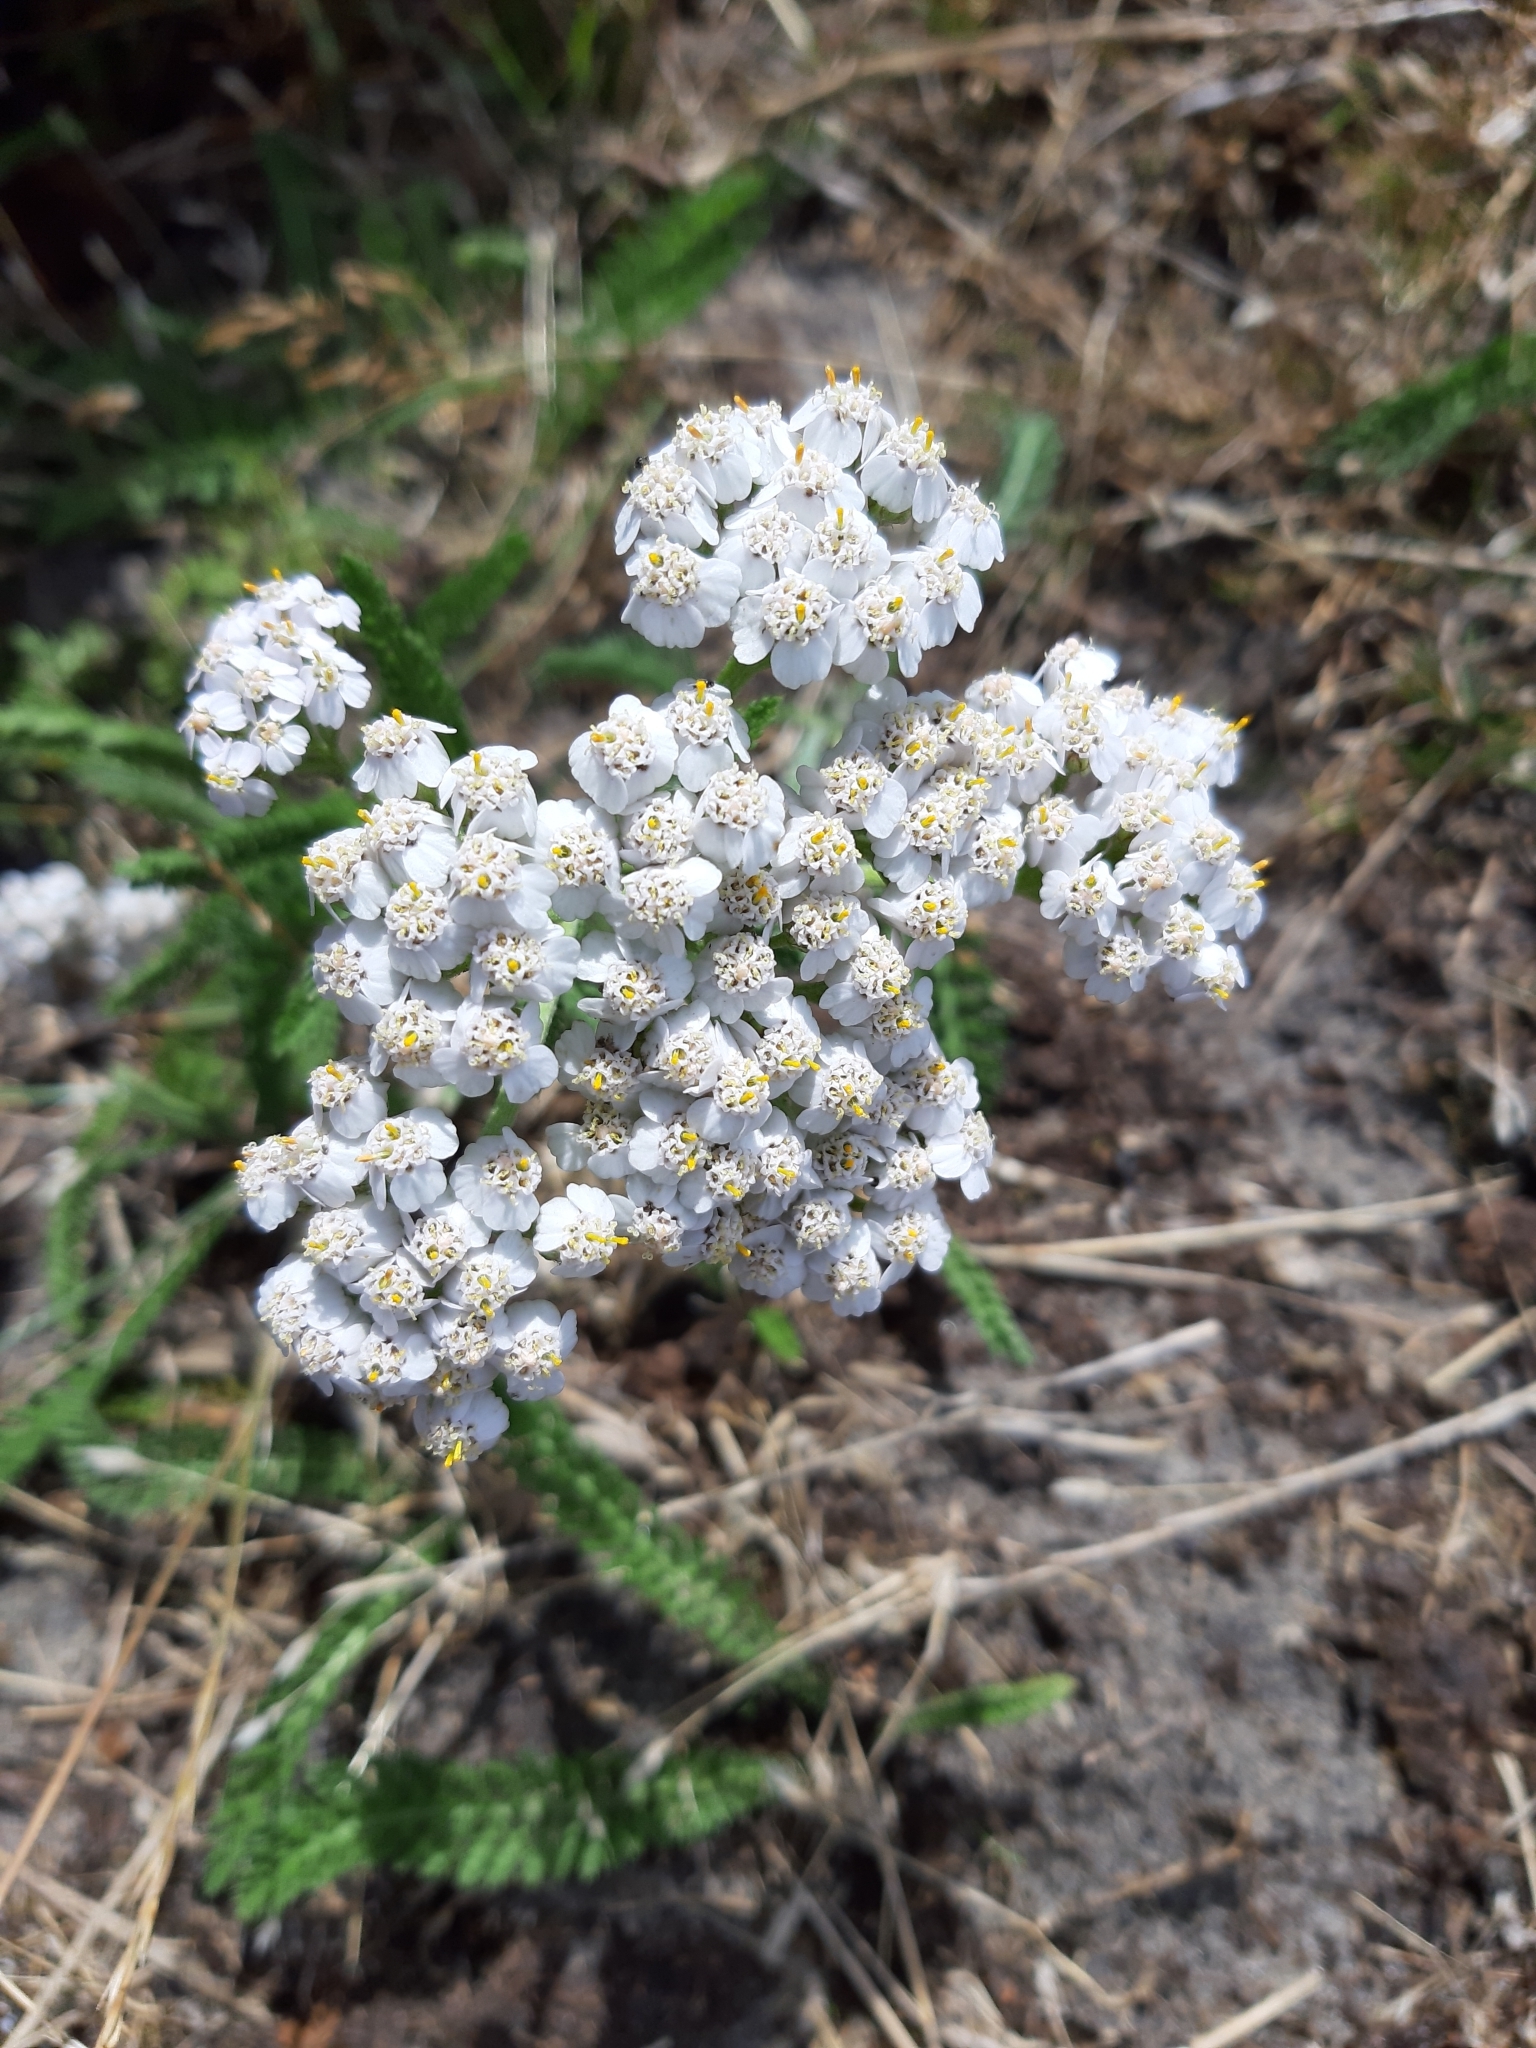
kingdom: Plantae
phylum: Tracheophyta
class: Magnoliopsida
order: Asterales
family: Asteraceae
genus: Achillea
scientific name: Achillea millefolium
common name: Yarrow
